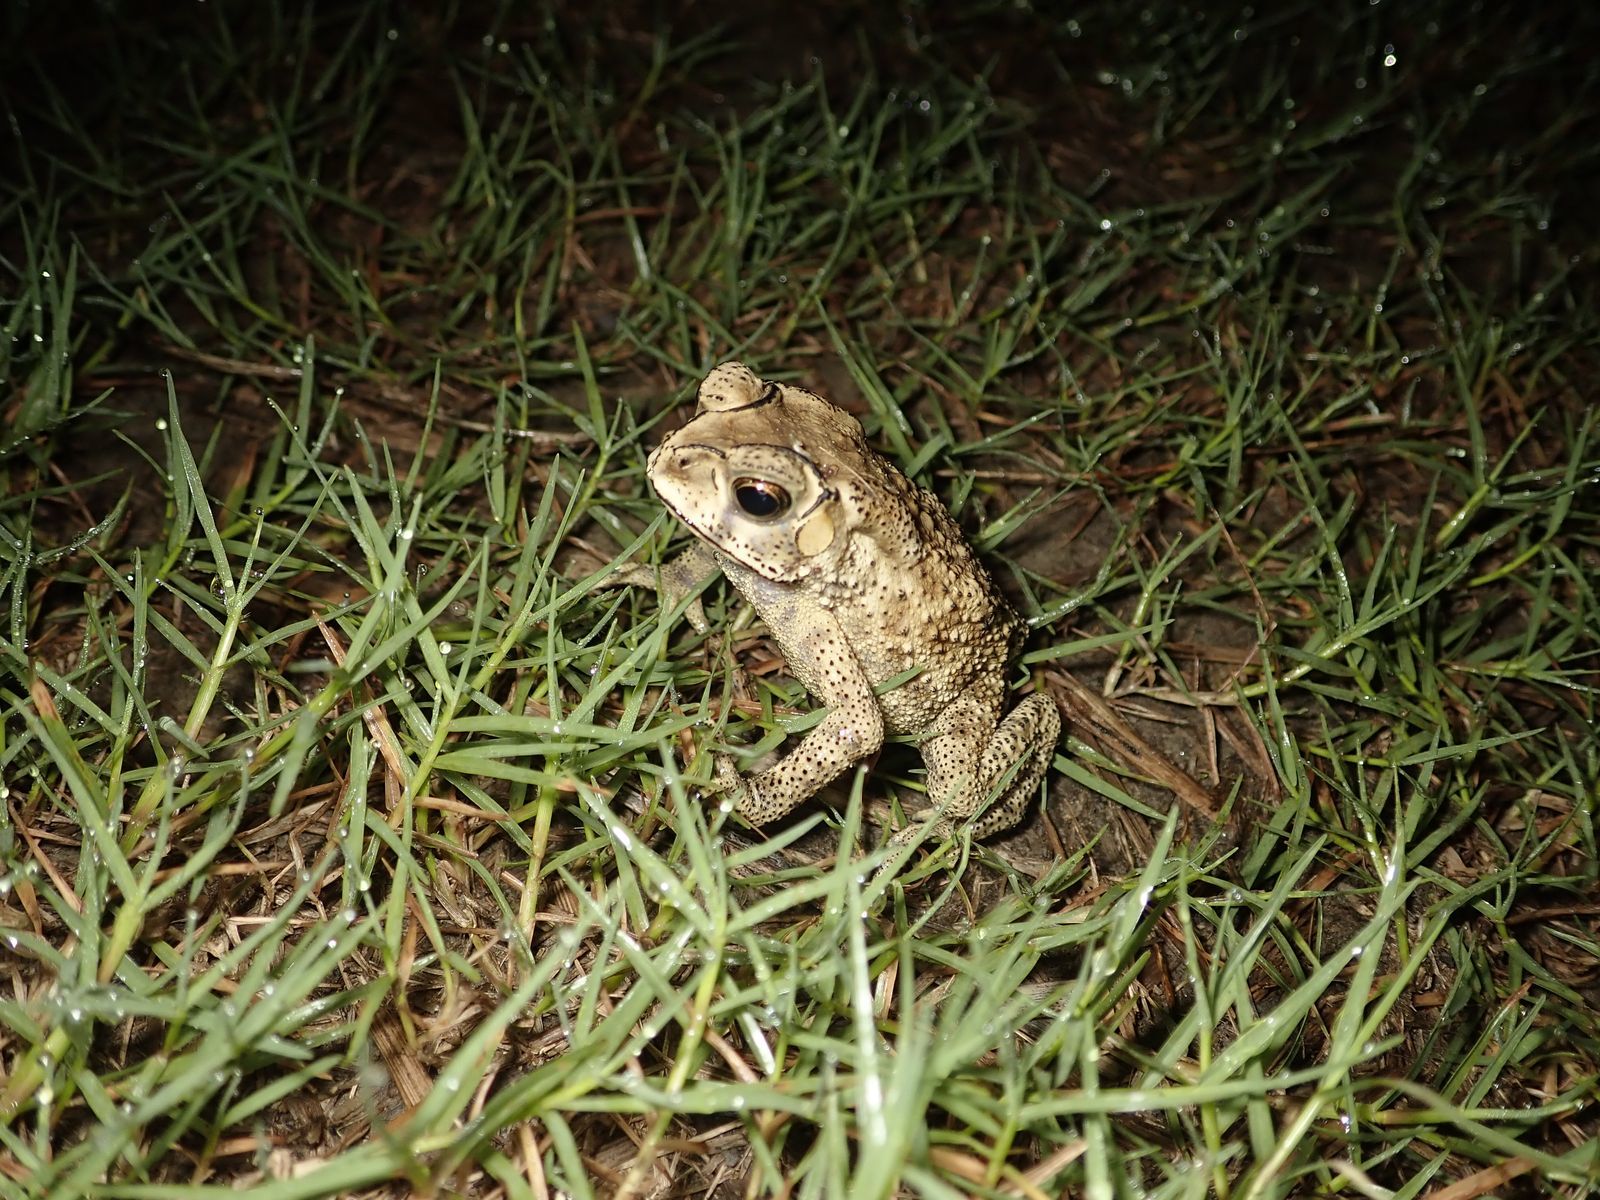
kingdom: Animalia
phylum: Chordata
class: Amphibia
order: Anura
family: Bufonidae
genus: Duttaphrynus
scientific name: Duttaphrynus melanostictus
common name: Common sunda toad
